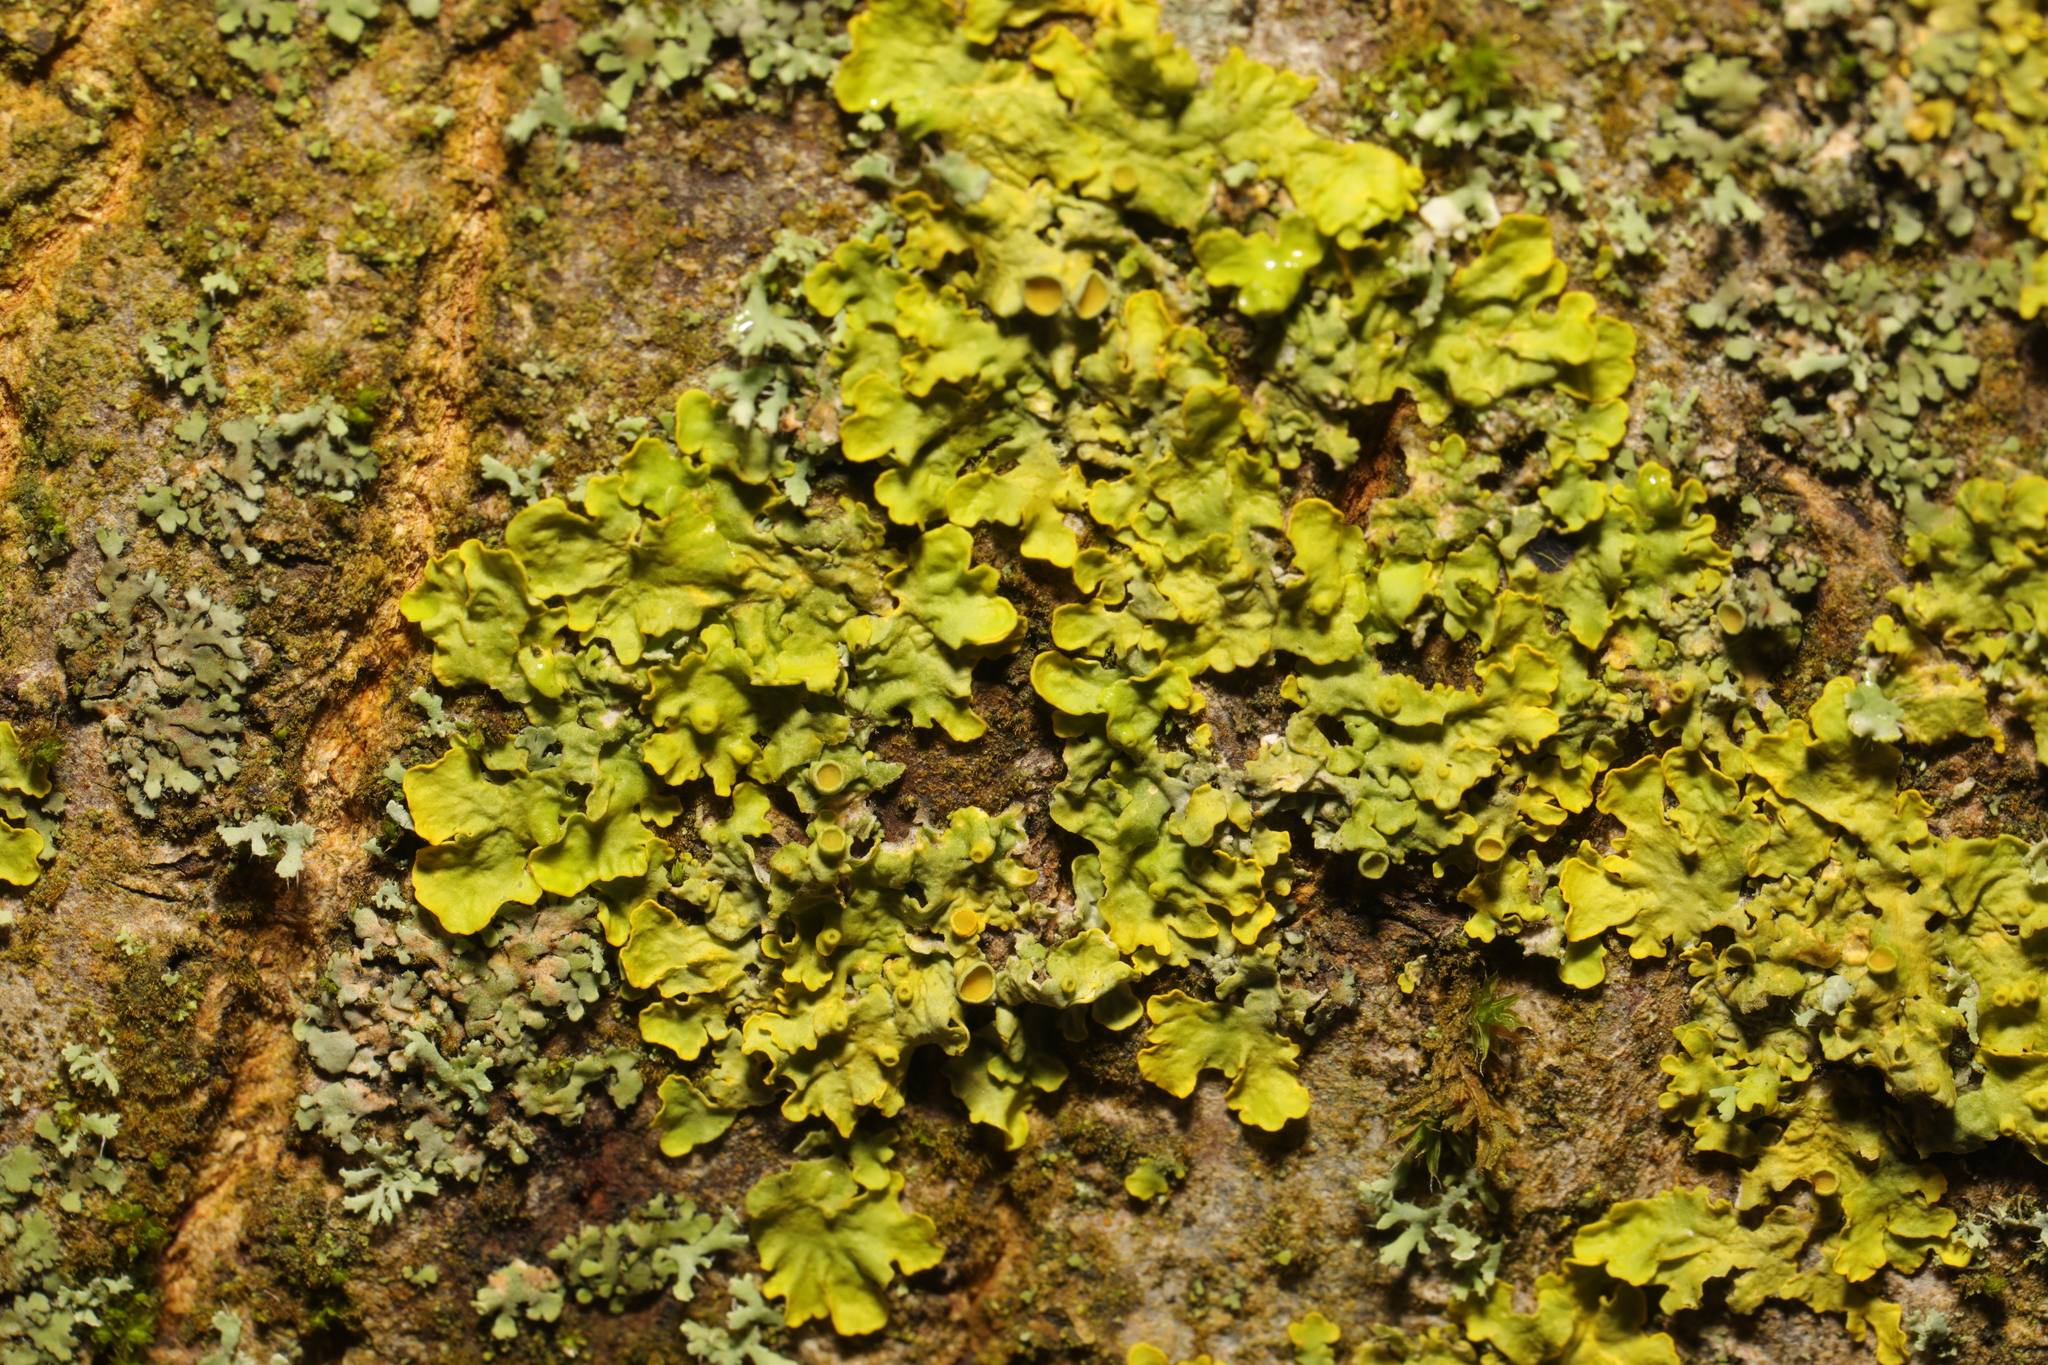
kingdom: Fungi
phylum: Ascomycota
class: Lecanoromycetes
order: Teloschistales
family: Teloschistaceae
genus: Xanthoria
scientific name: Xanthoria parietina
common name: Common orange lichen
